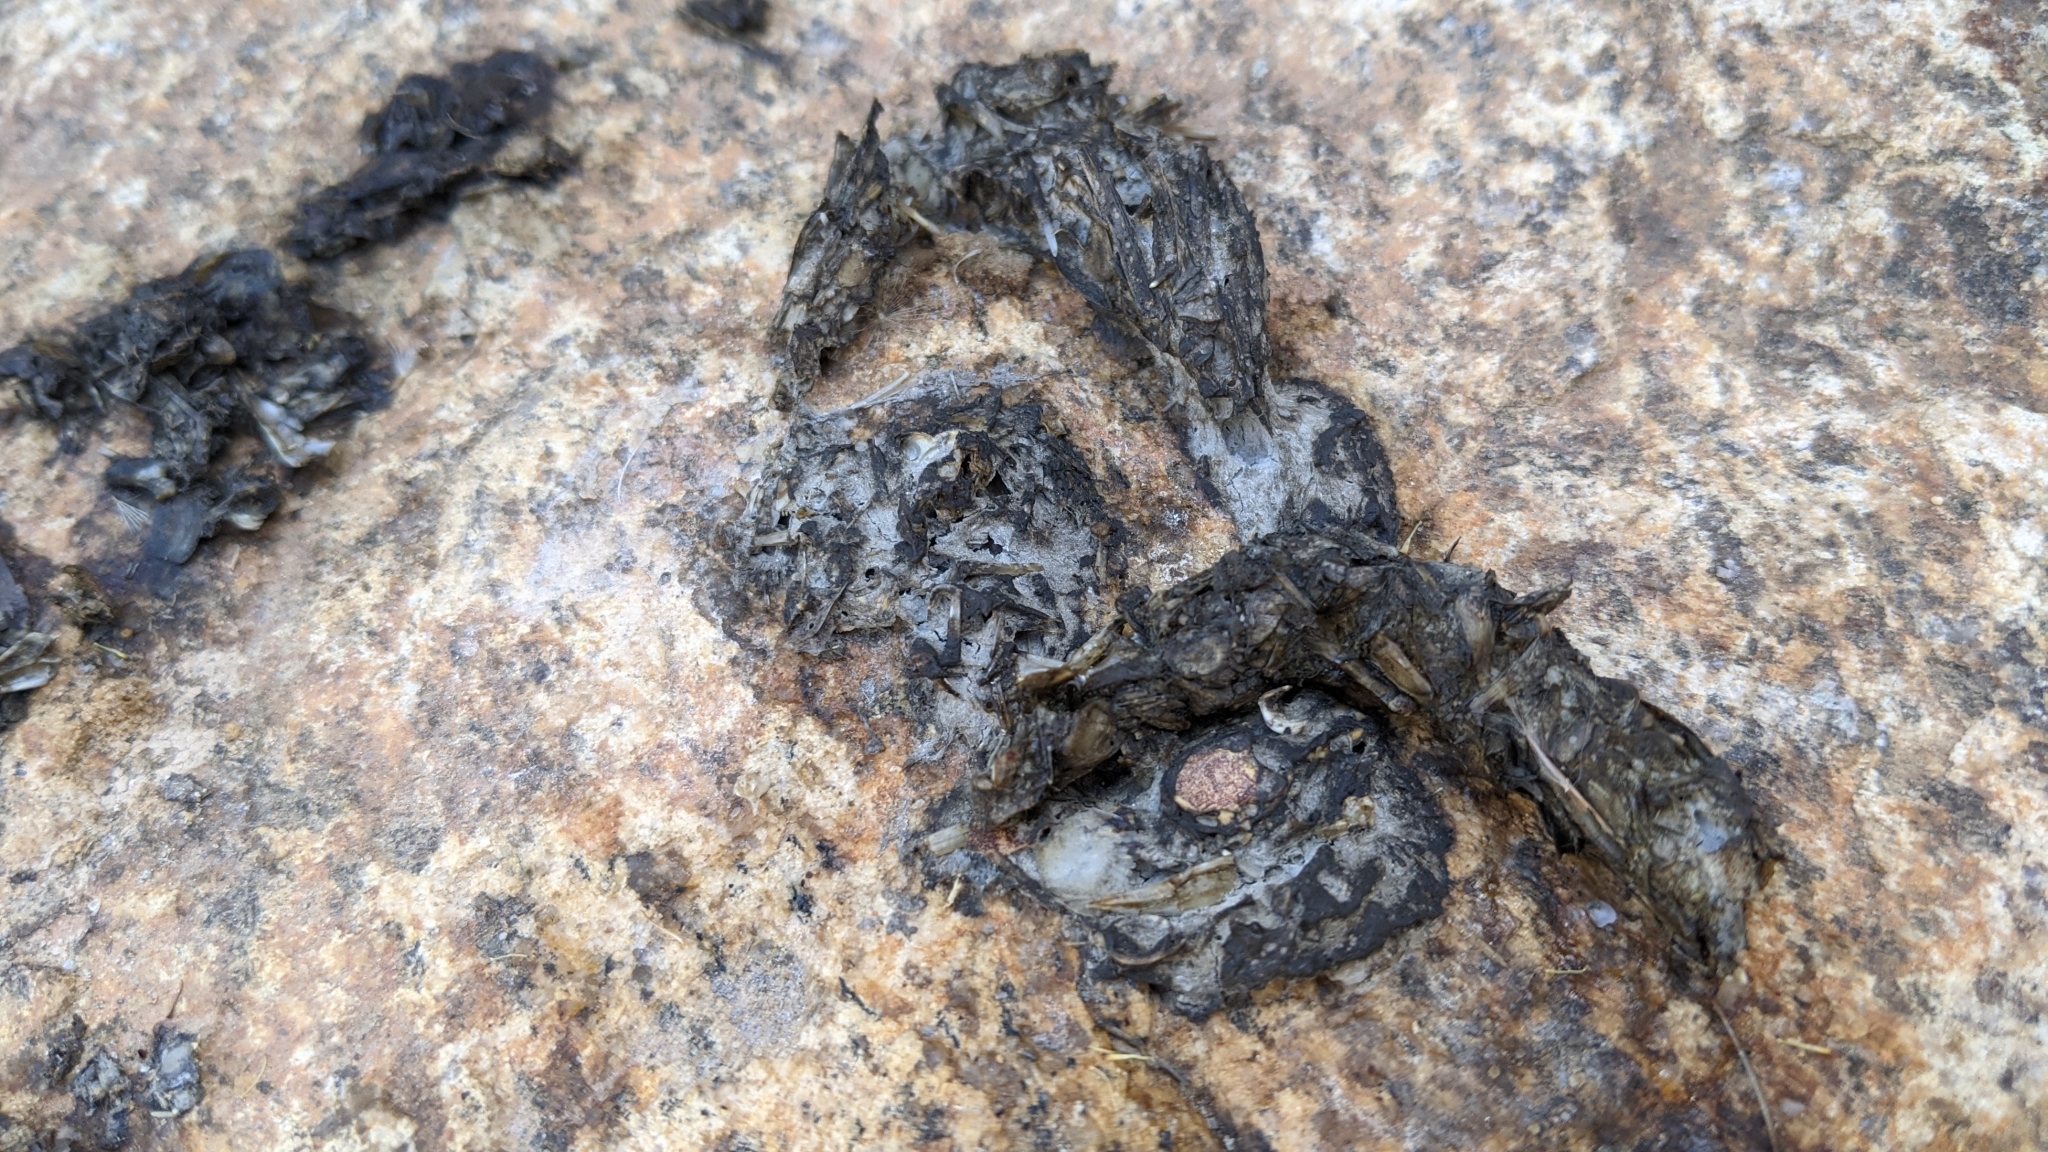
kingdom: Animalia
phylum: Chordata
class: Mammalia
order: Carnivora
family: Mustelidae
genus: Lutra
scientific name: Lutra lutra
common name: European otter
